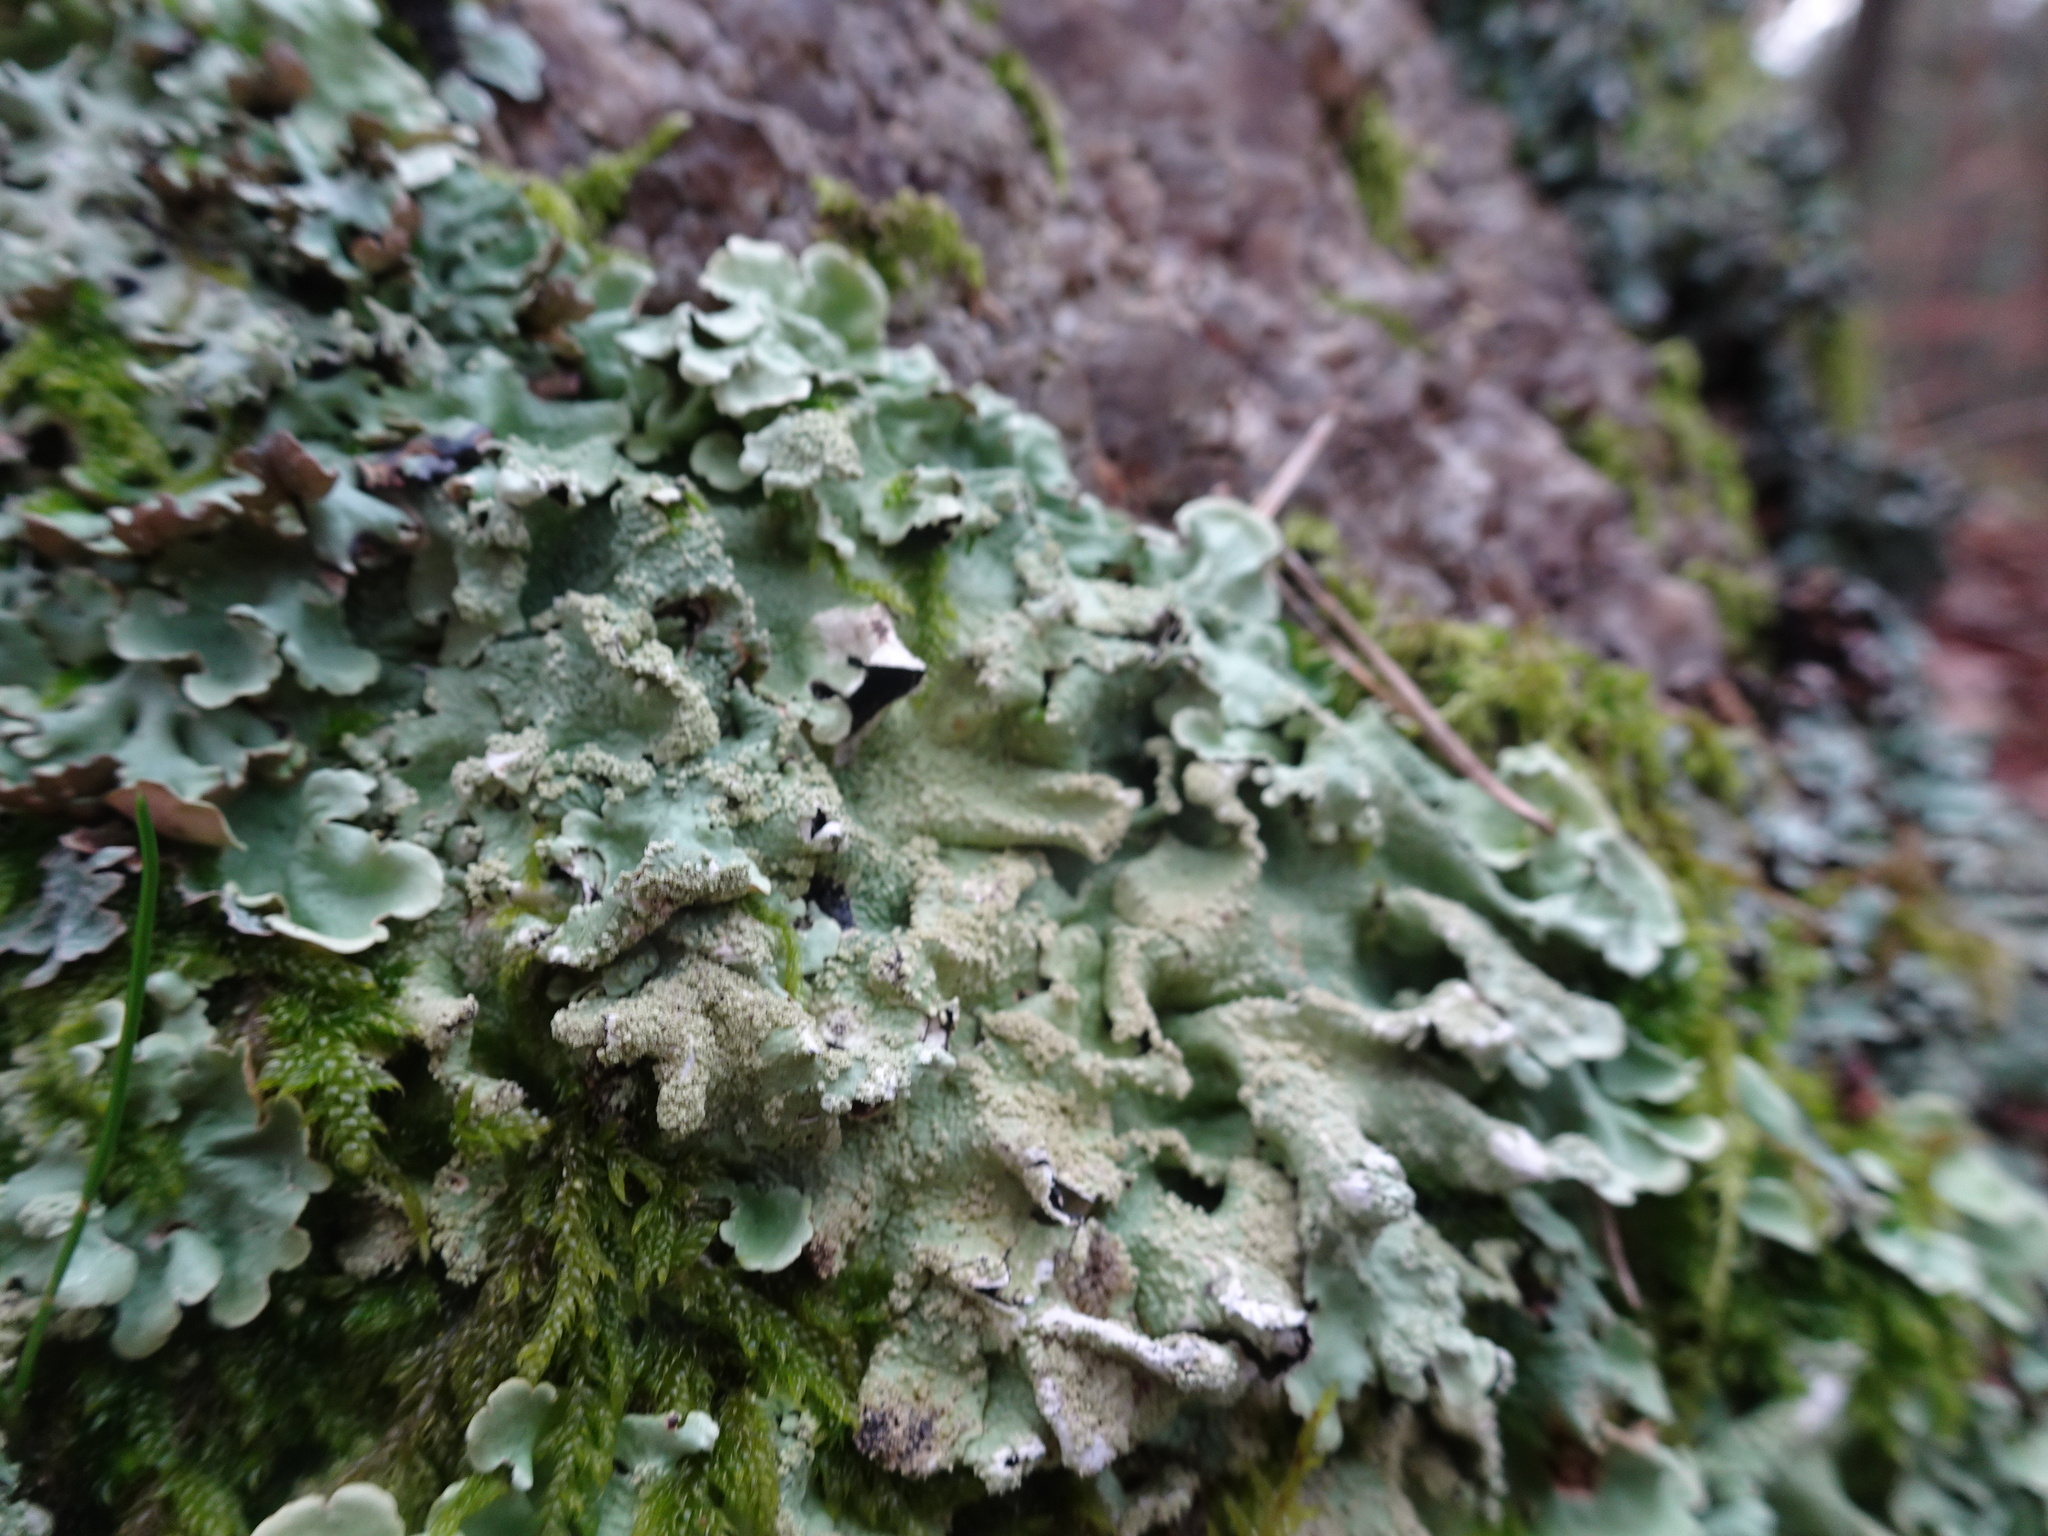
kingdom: Fungi
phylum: Ascomycota
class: Lecanoromycetes
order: Lecanorales
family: Parmeliaceae
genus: Flavoparmelia
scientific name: Flavoparmelia caperata
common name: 40-mile per hour lichen
